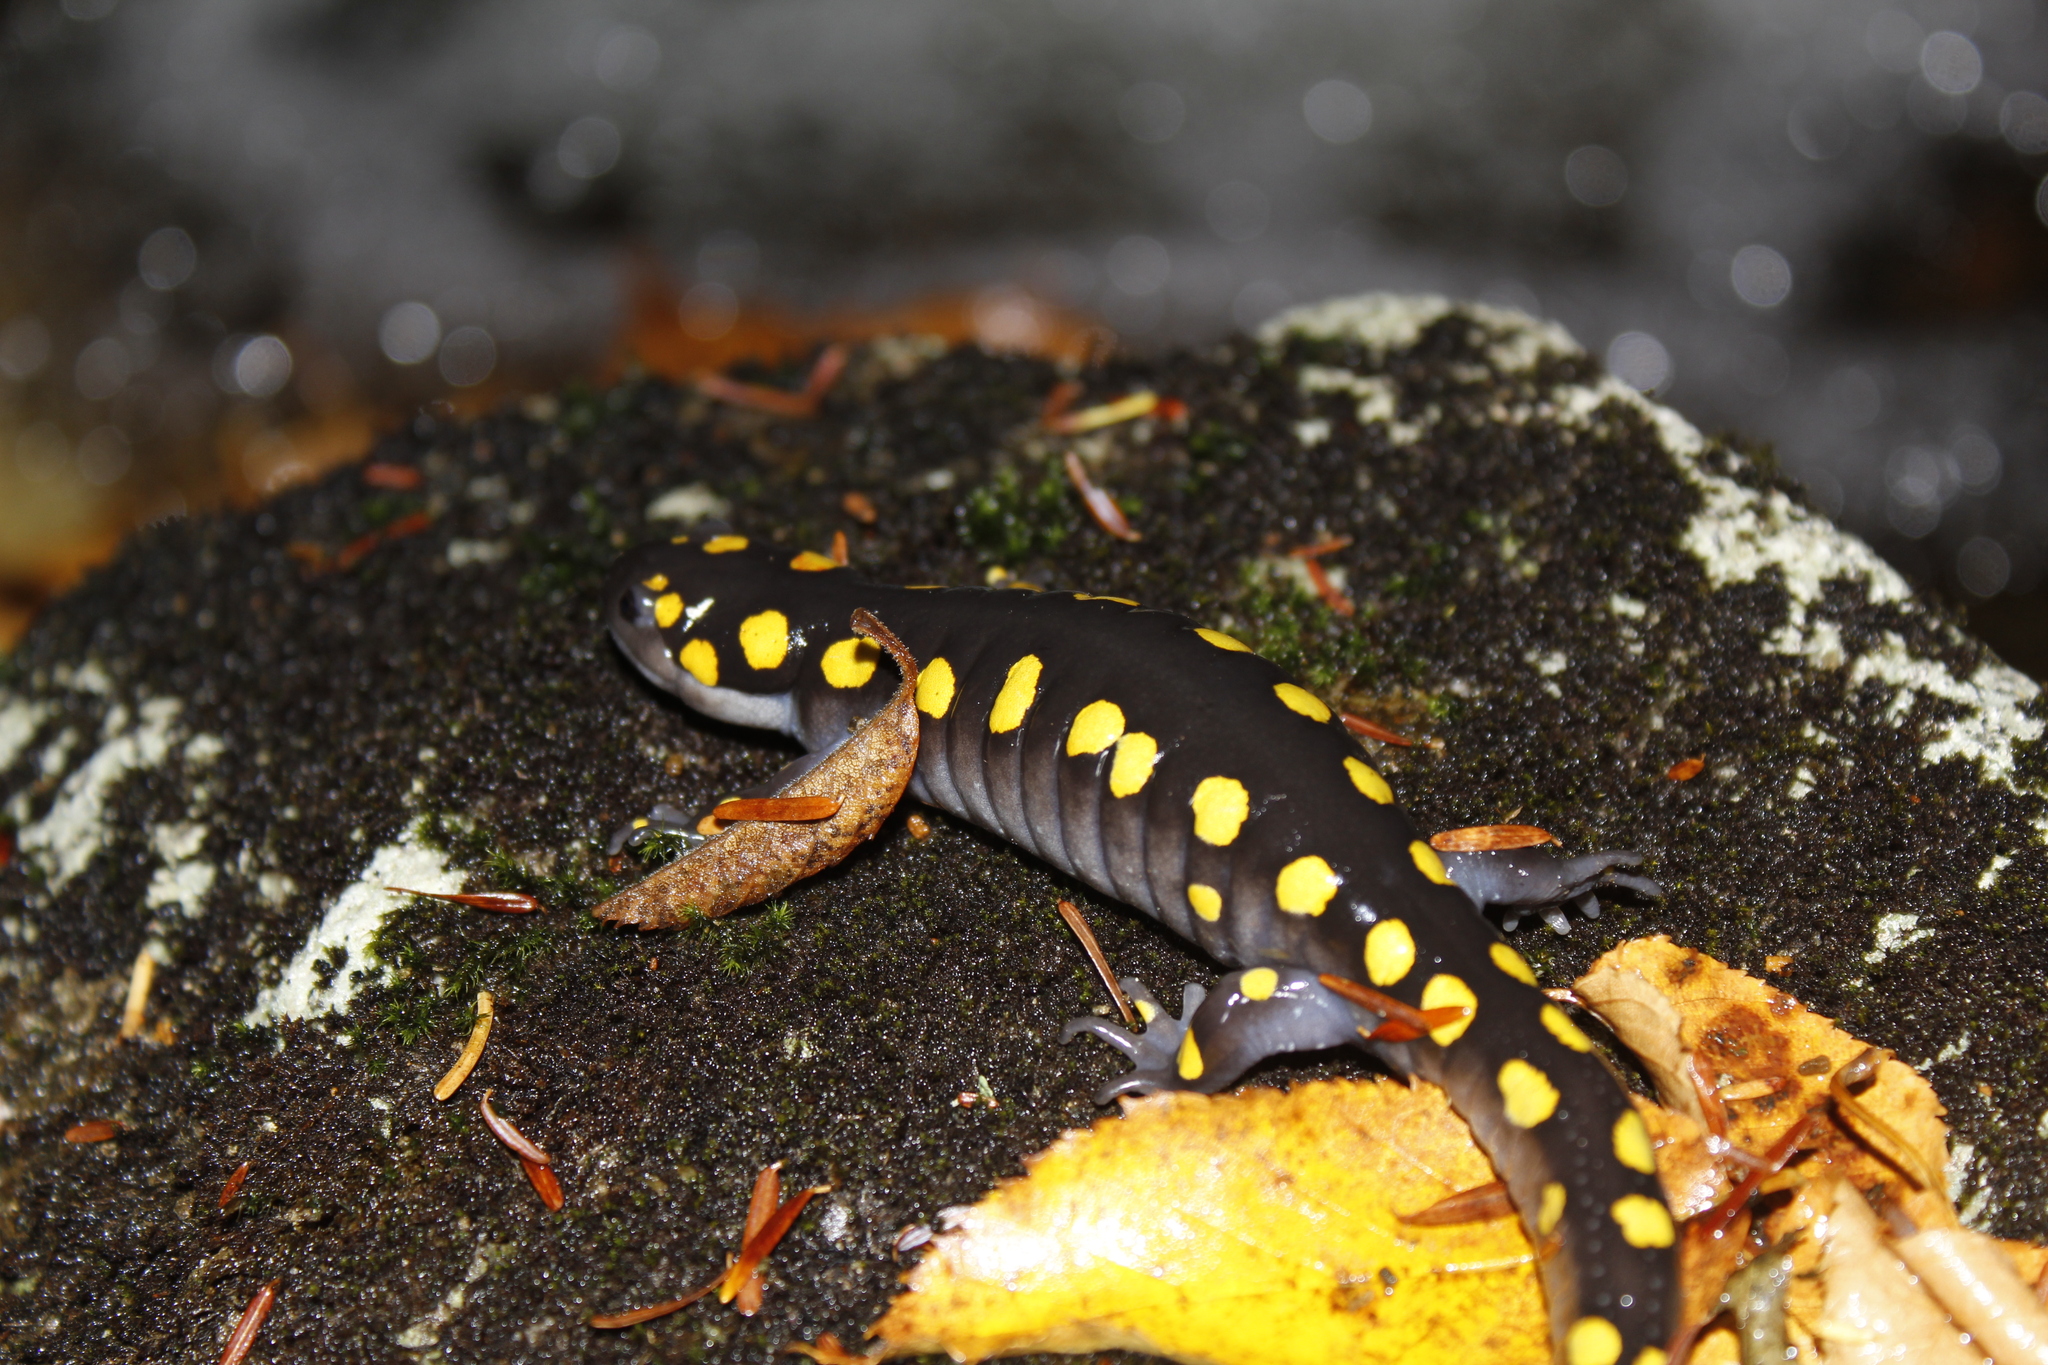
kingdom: Animalia
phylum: Chordata
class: Amphibia
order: Caudata
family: Ambystomatidae
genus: Ambystoma
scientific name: Ambystoma maculatum
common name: Spotted salamander
